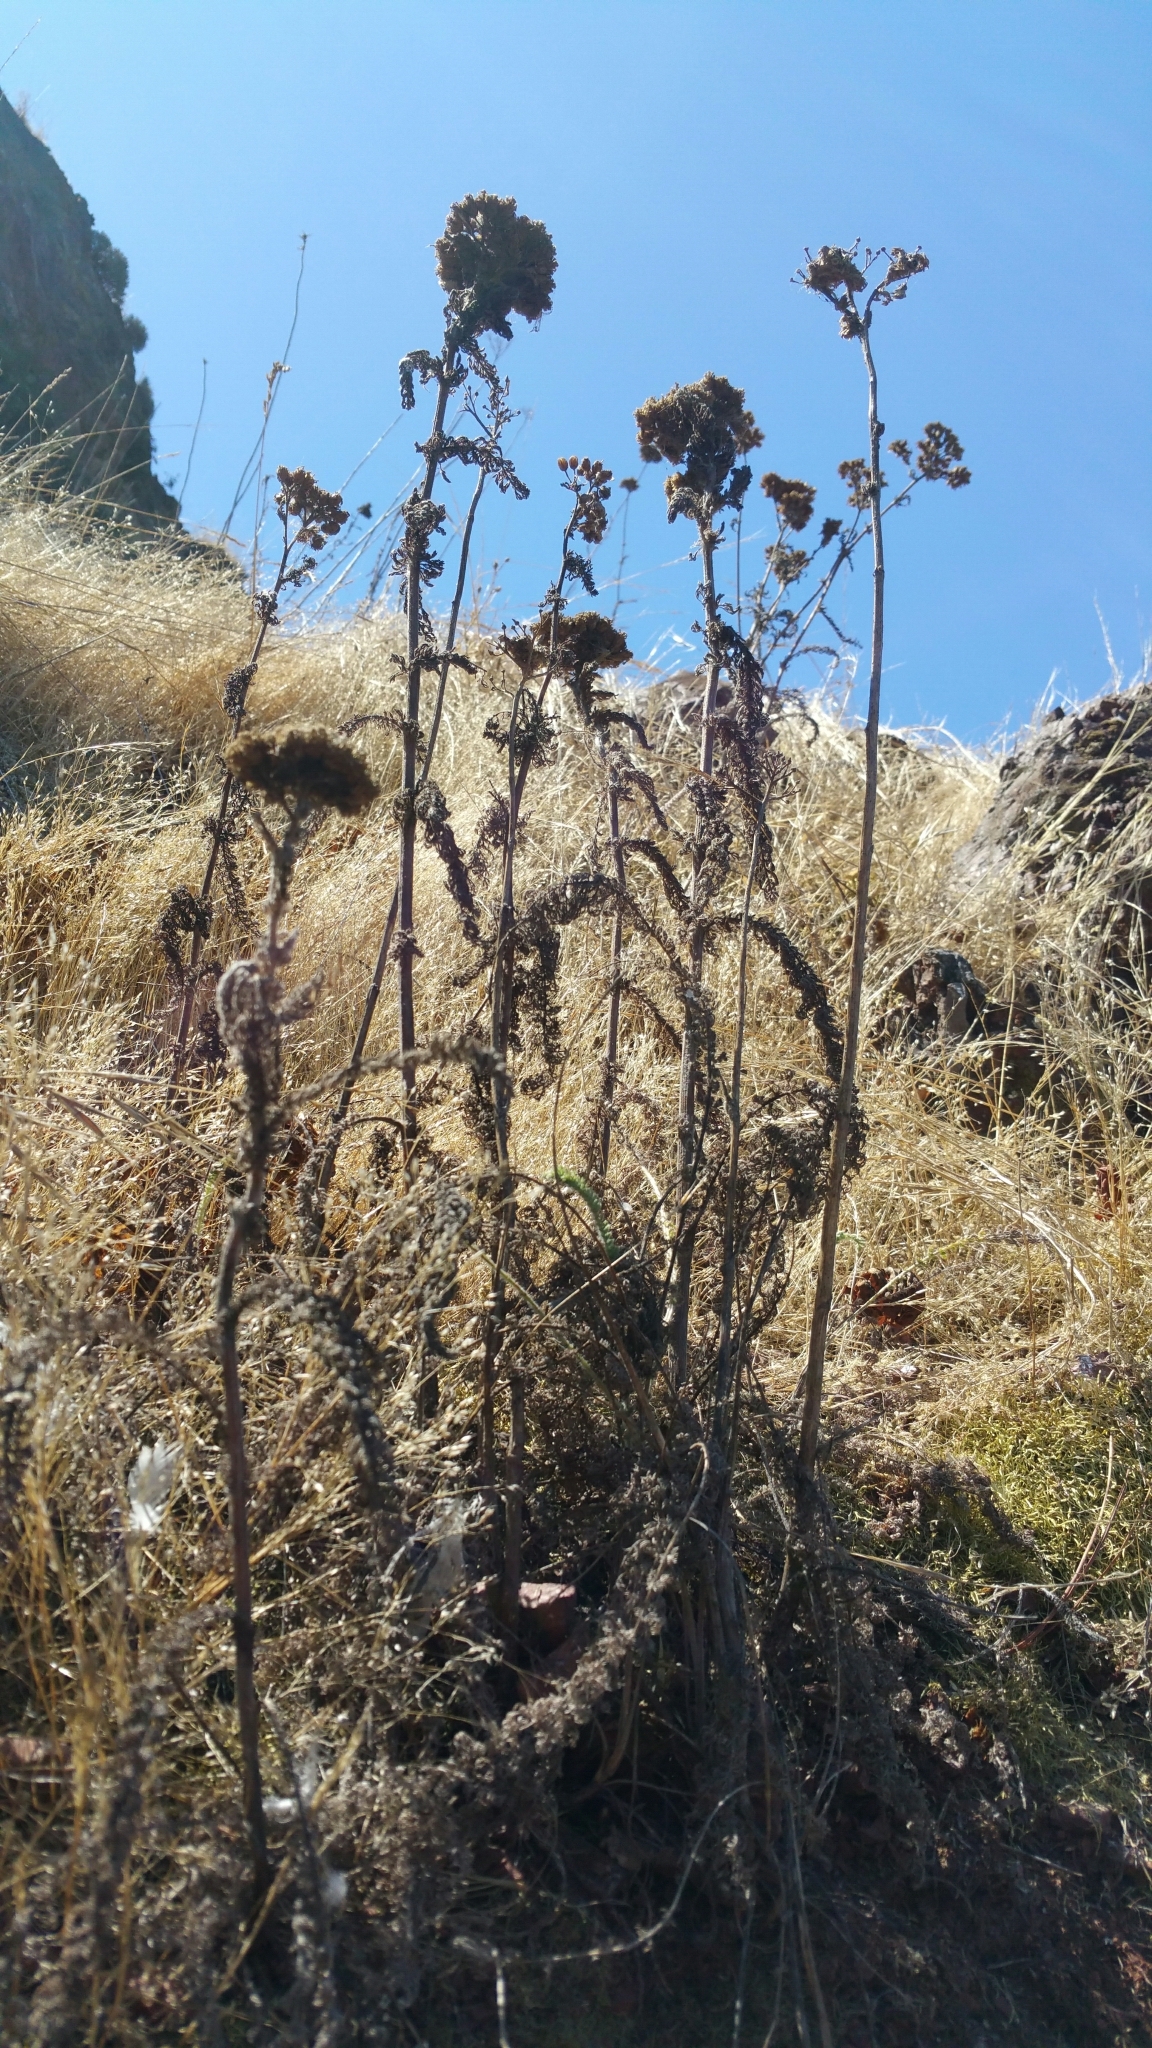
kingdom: Plantae
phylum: Tracheophyta
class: Magnoliopsida
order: Asterales
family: Asteraceae
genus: Achillea
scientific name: Achillea millefolium
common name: Yarrow
